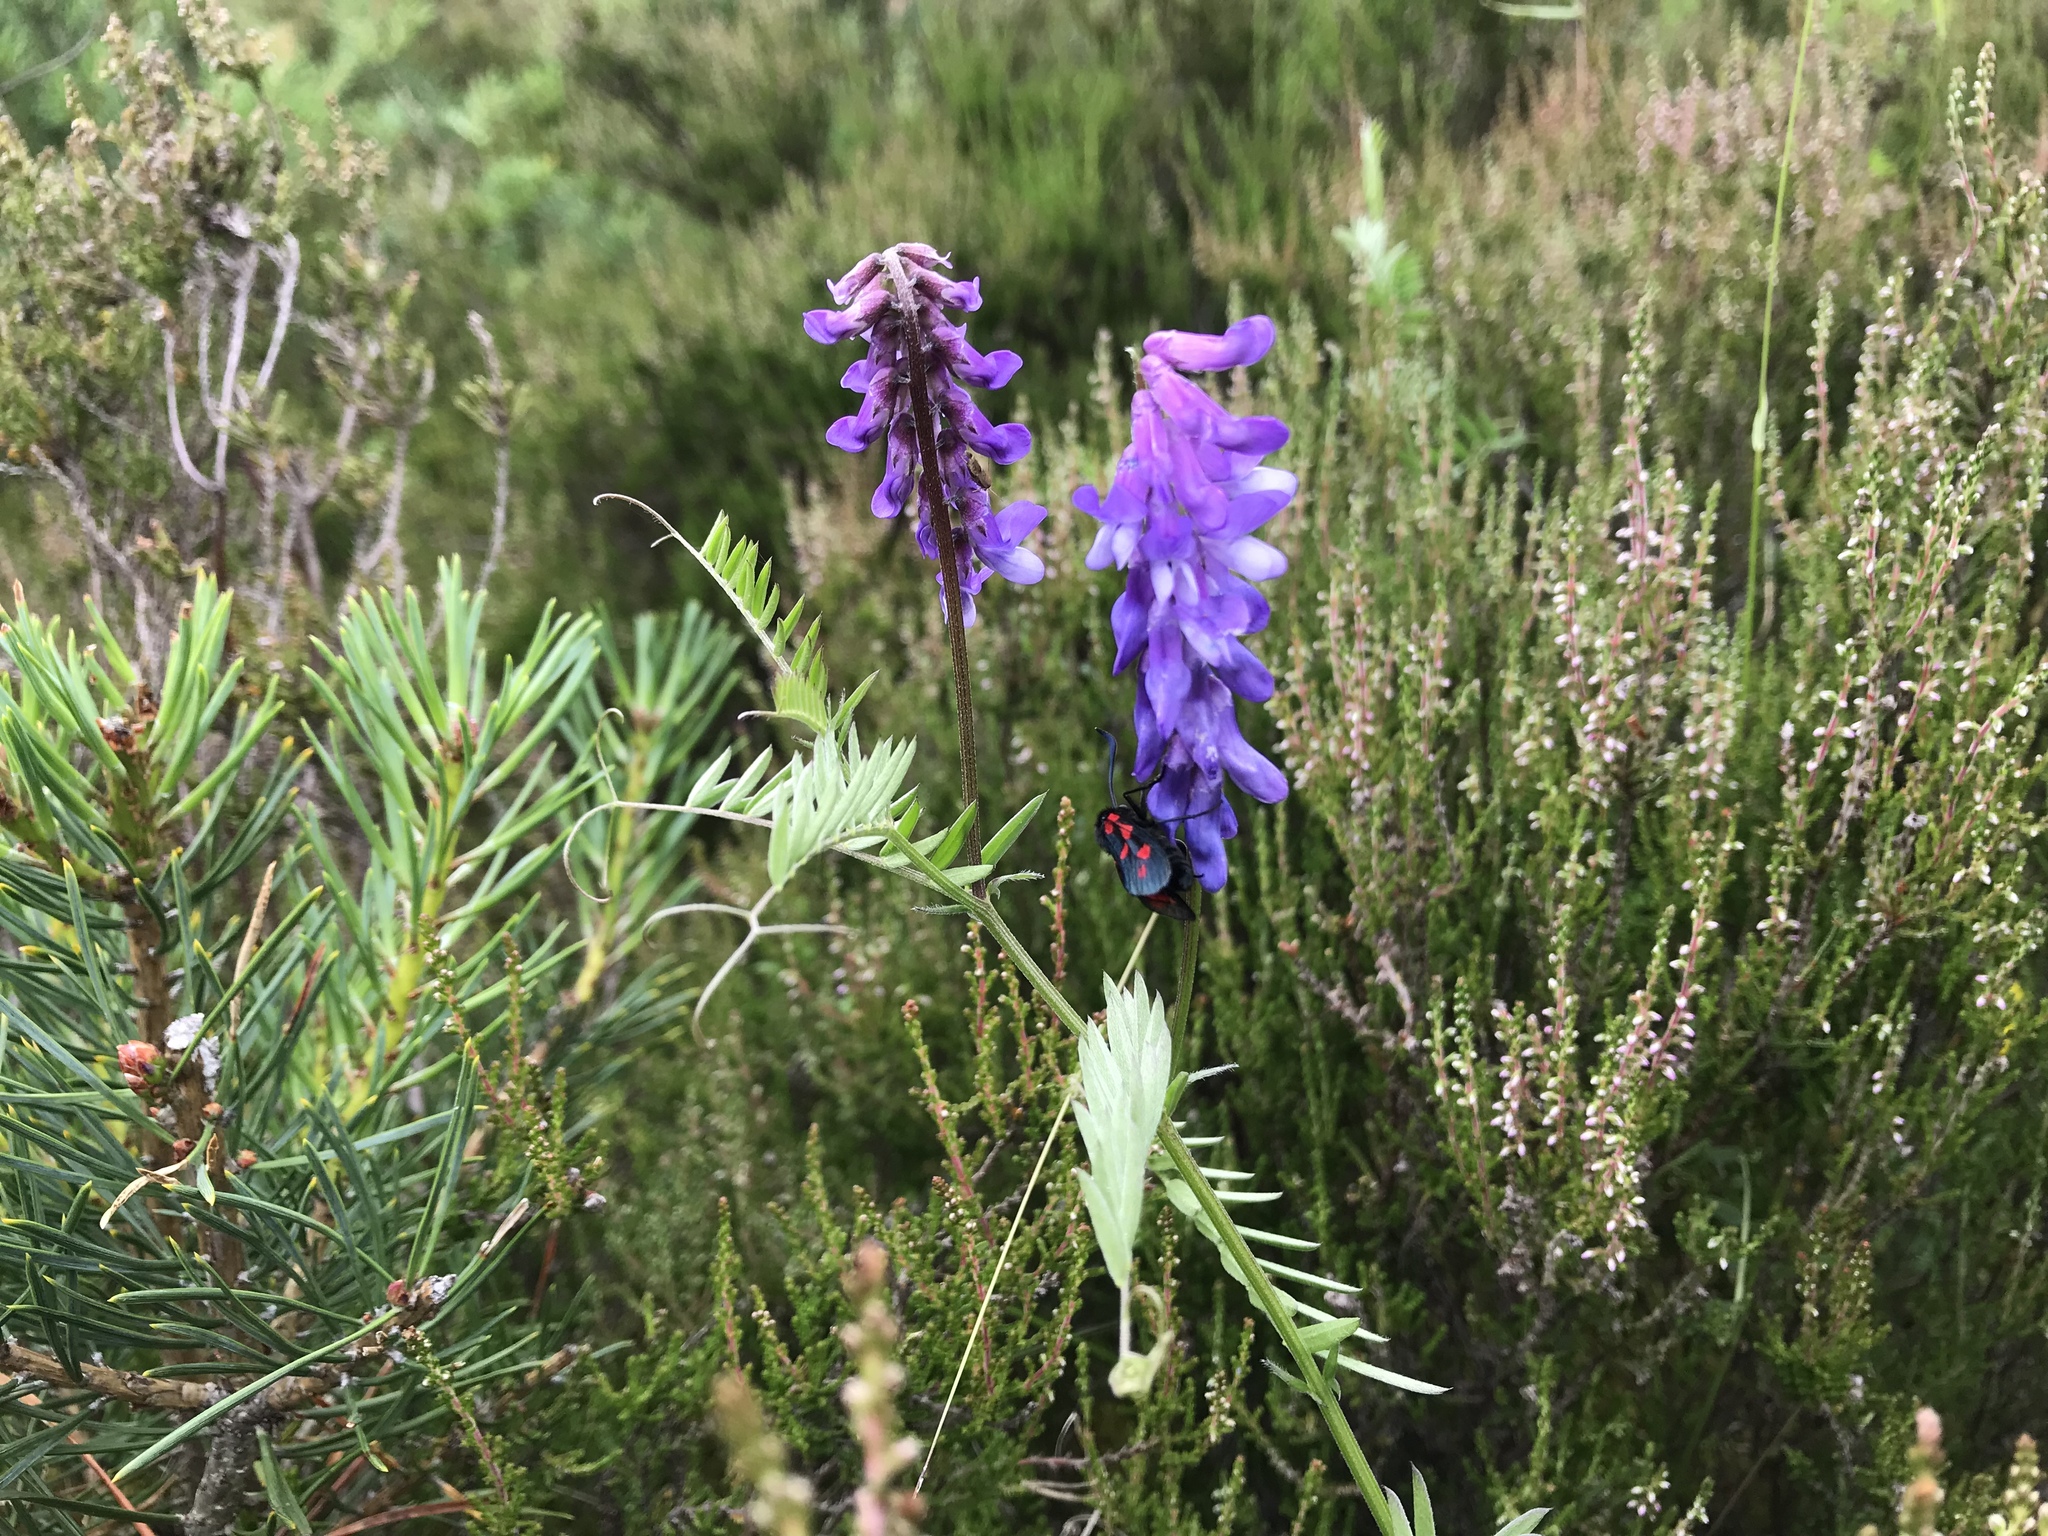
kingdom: Animalia
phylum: Arthropoda
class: Insecta
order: Lepidoptera
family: Zygaenidae
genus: Zygaena
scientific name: Zygaena filipendulae
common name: Six-spot burnet
